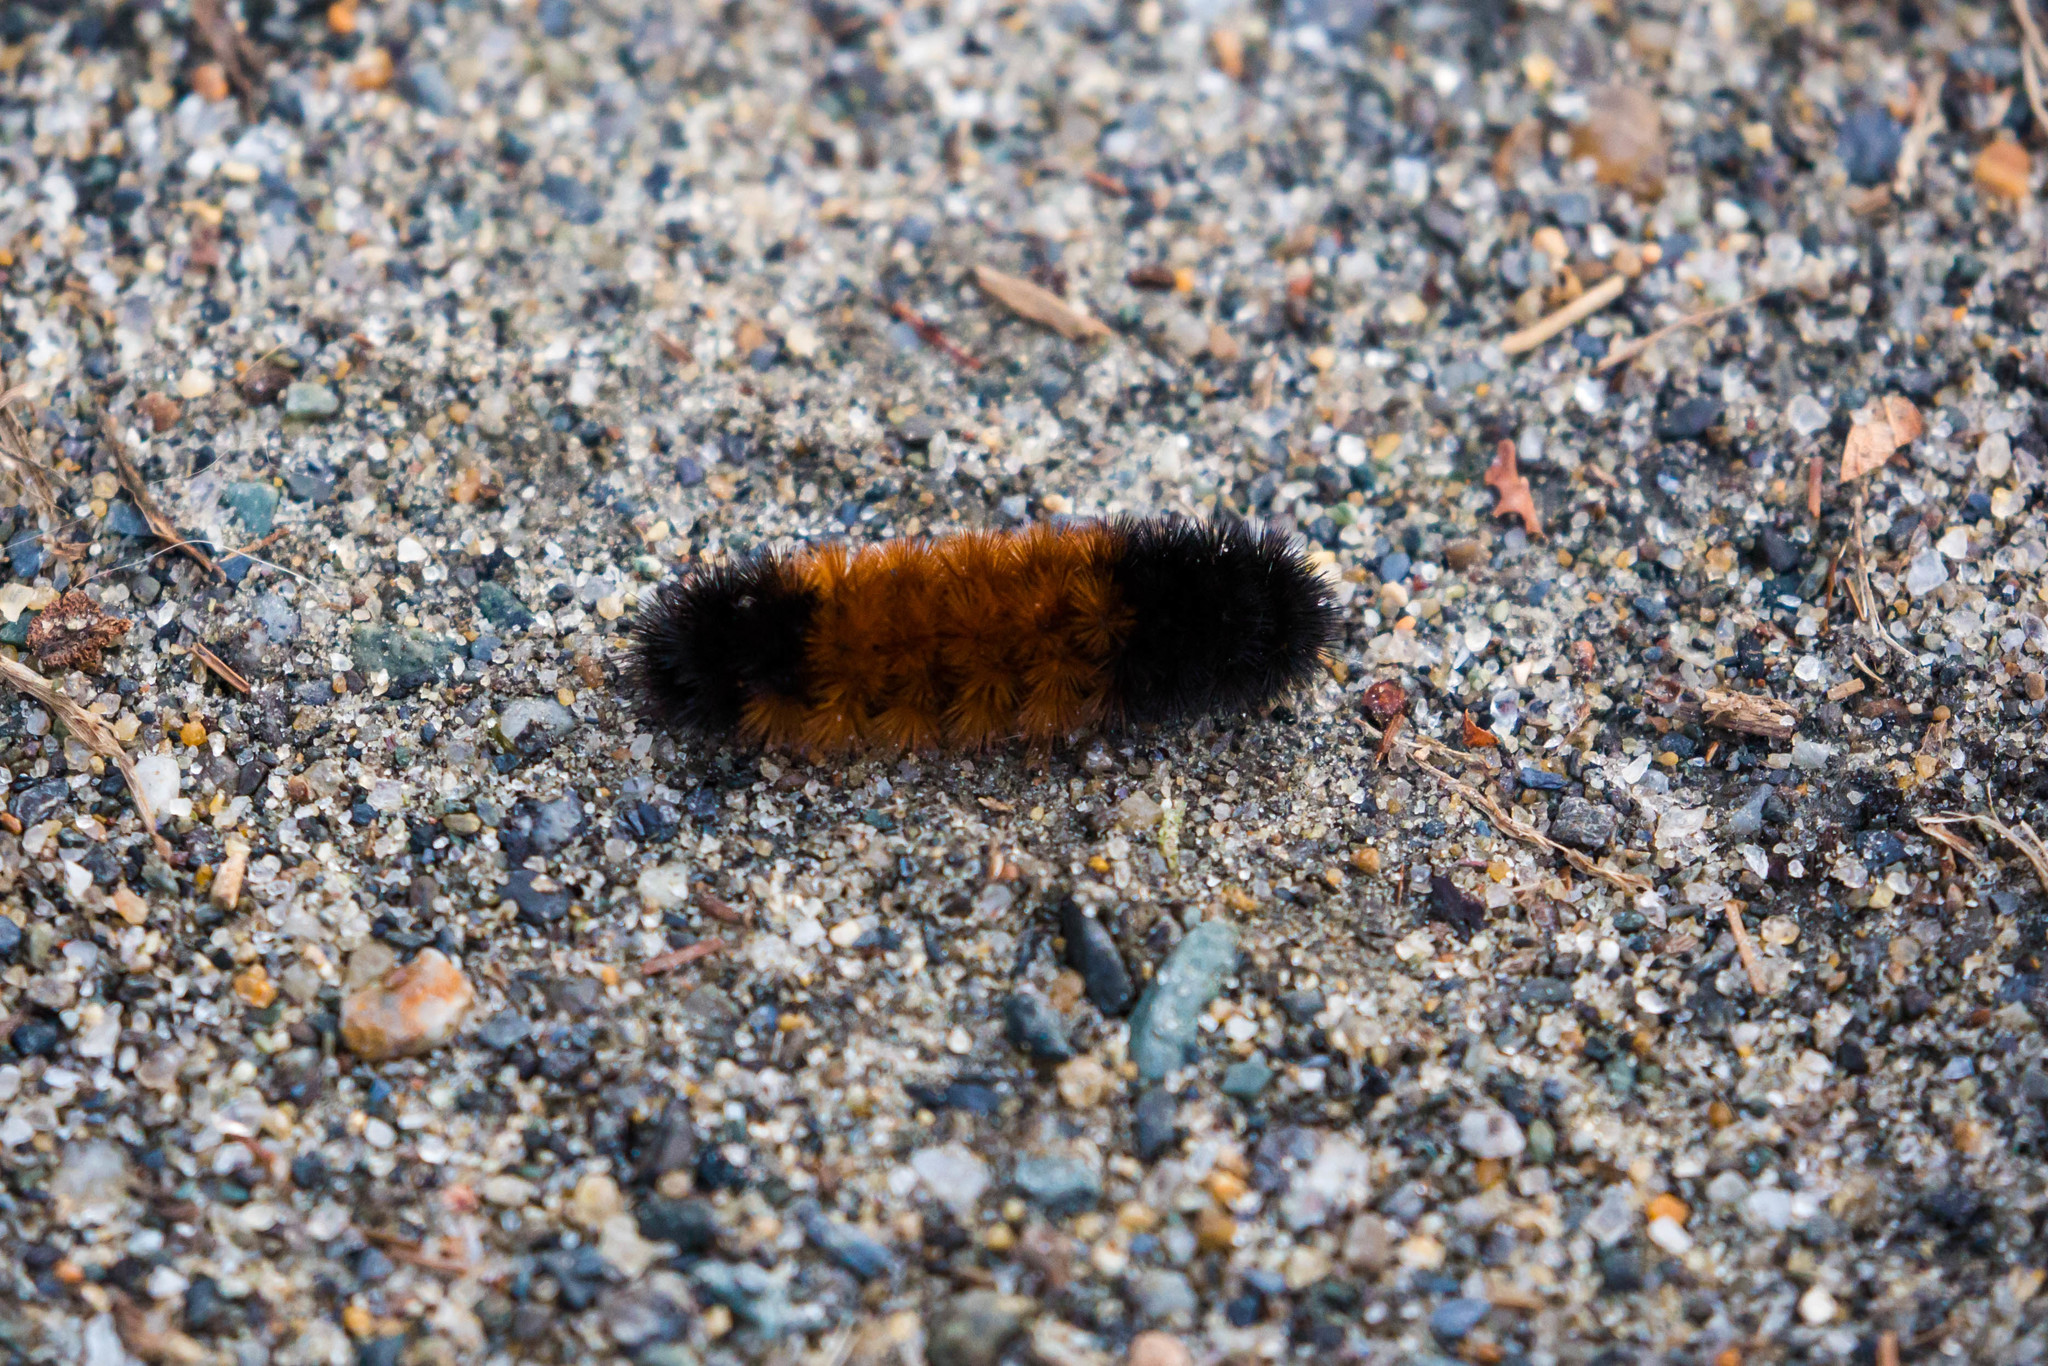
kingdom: Animalia
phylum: Arthropoda
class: Insecta
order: Lepidoptera
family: Erebidae
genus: Pyrrharctia
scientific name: Pyrrharctia isabella
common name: Isabella tiger moth
